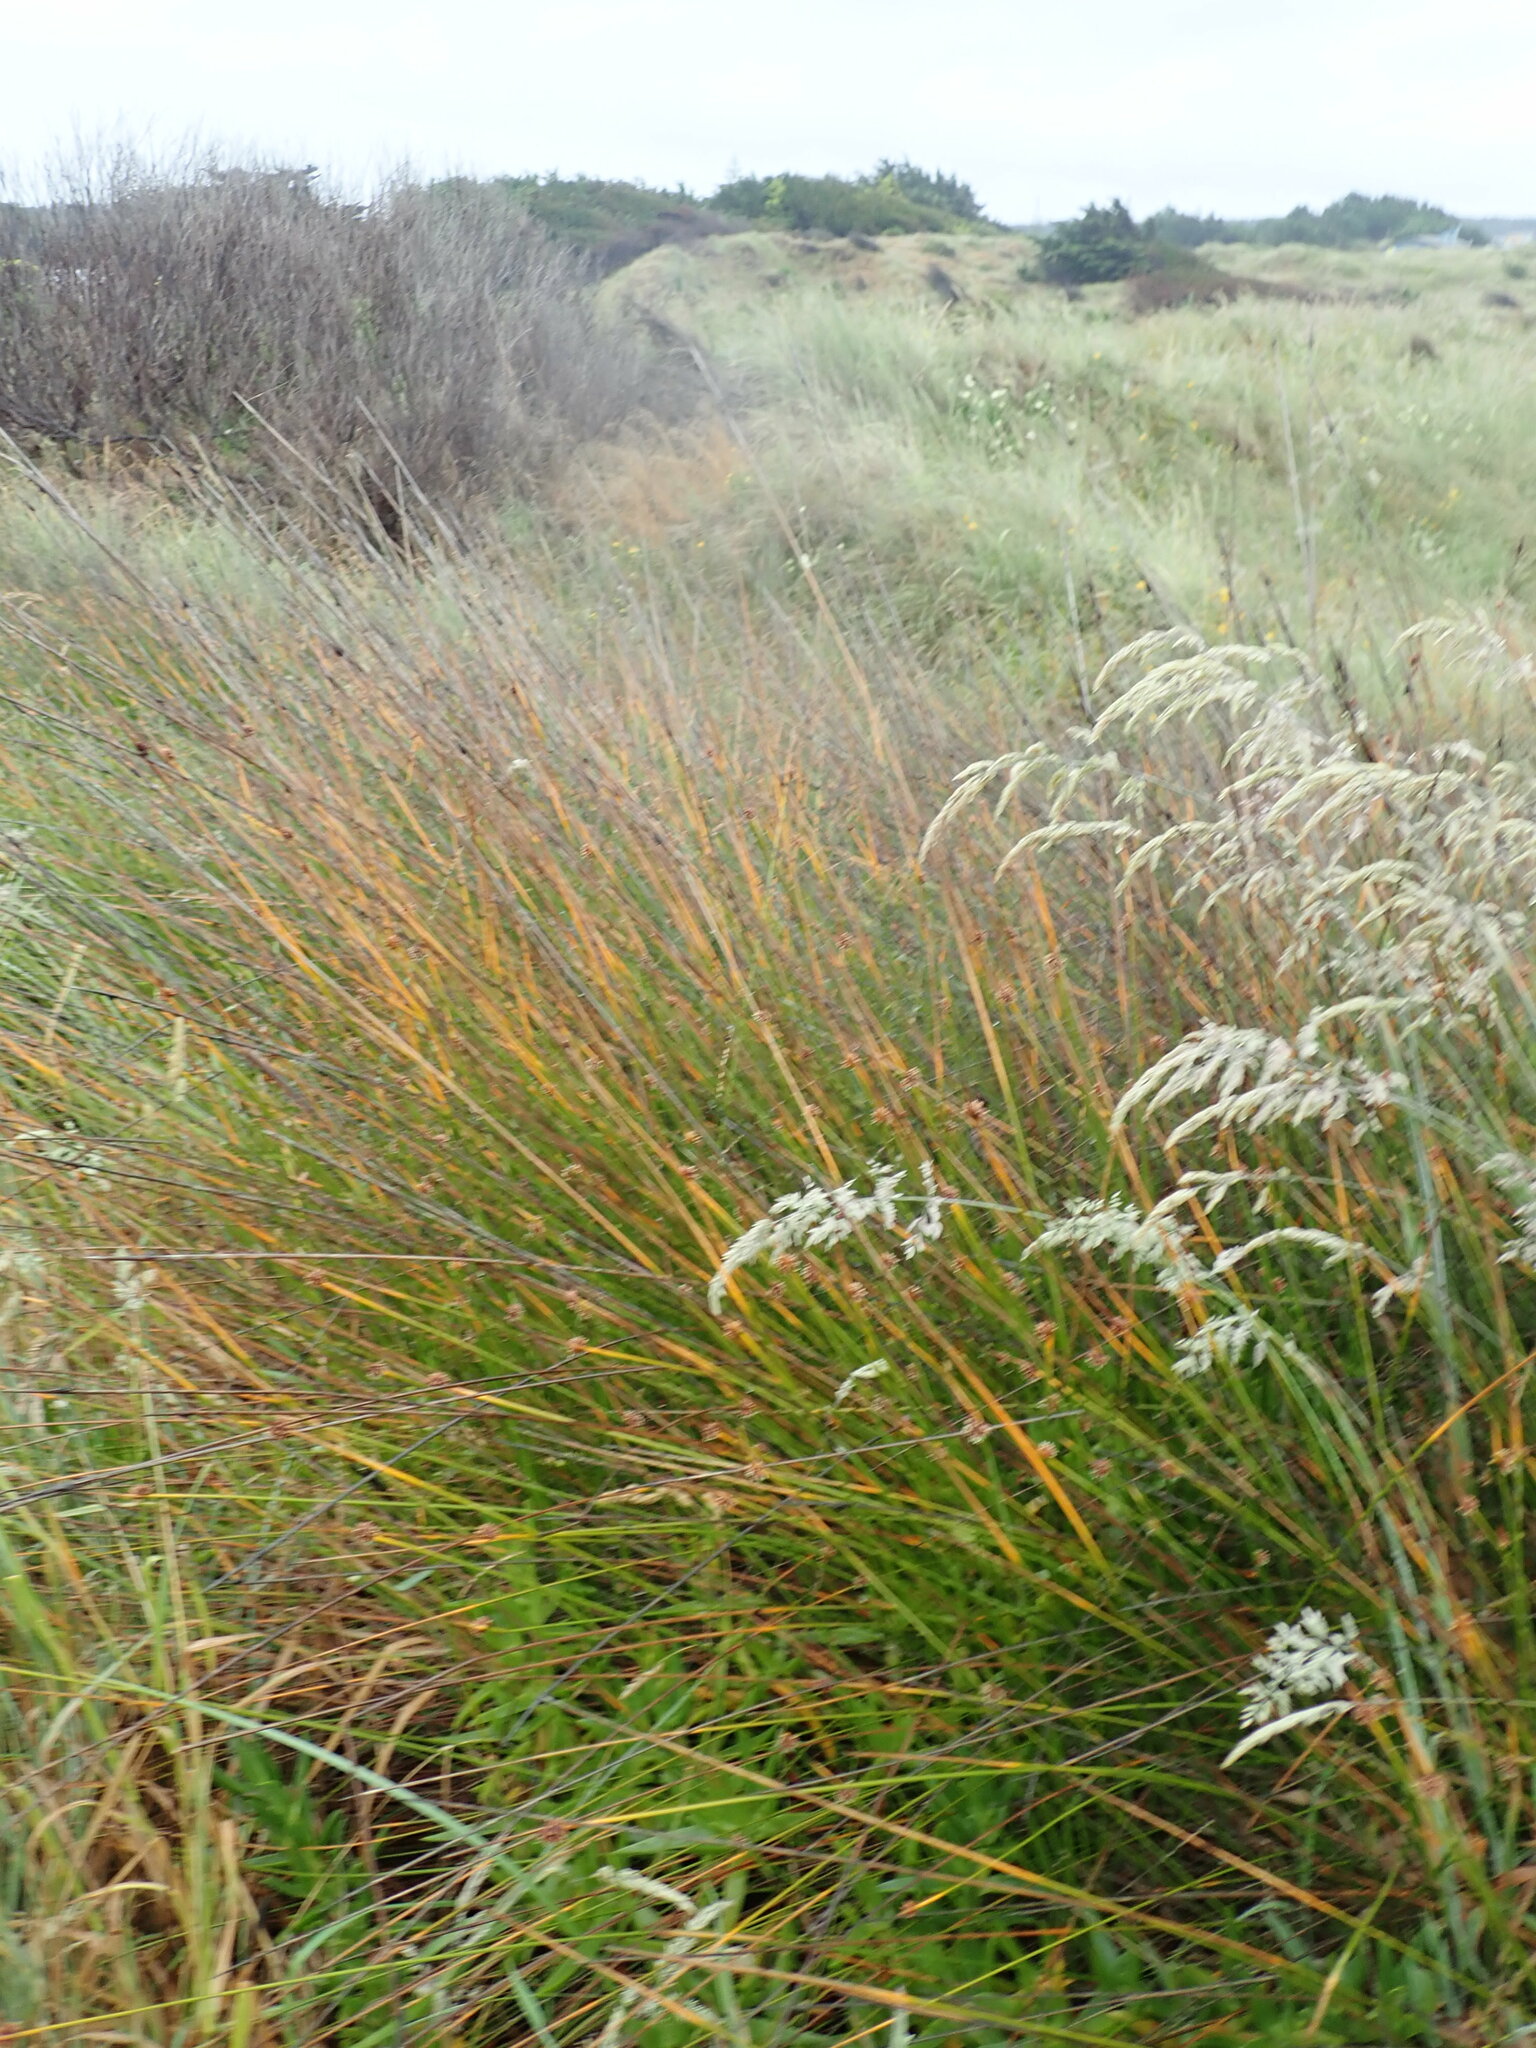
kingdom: Plantae
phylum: Tracheophyta
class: Liliopsida
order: Poales
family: Cyperaceae
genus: Ficinia
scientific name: Ficinia nodosa
